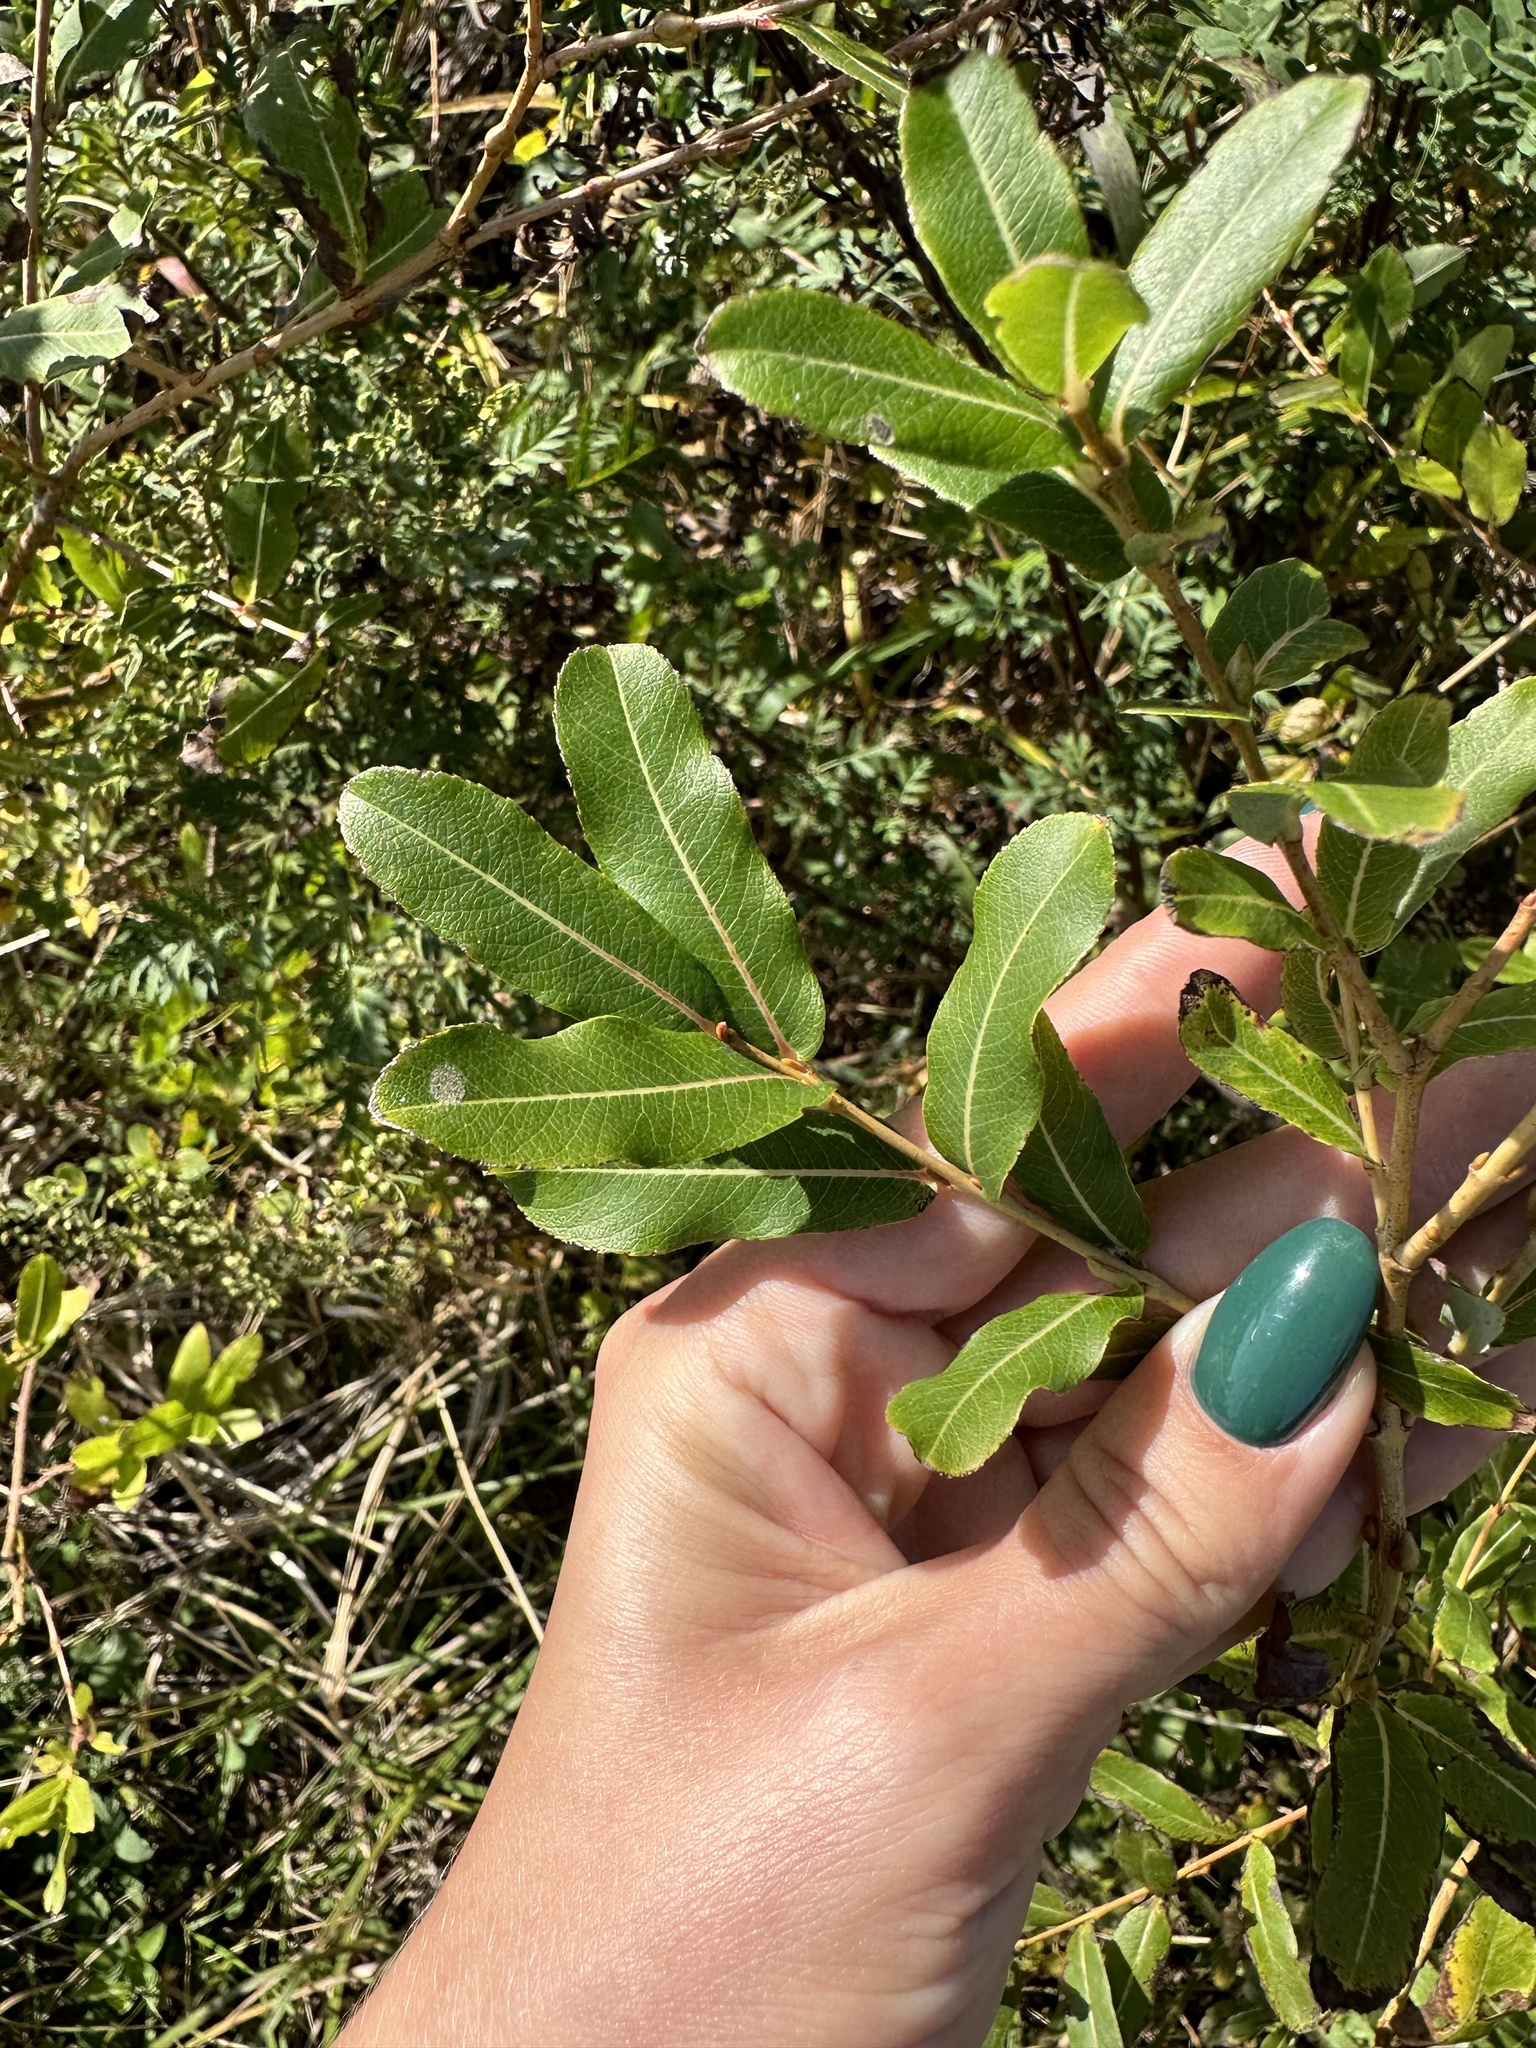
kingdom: Plantae
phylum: Tracheophyta
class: Magnoliopsida
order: Malpighiales
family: Salicaceae
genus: Salix
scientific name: Salix integra
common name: Dappled willow
